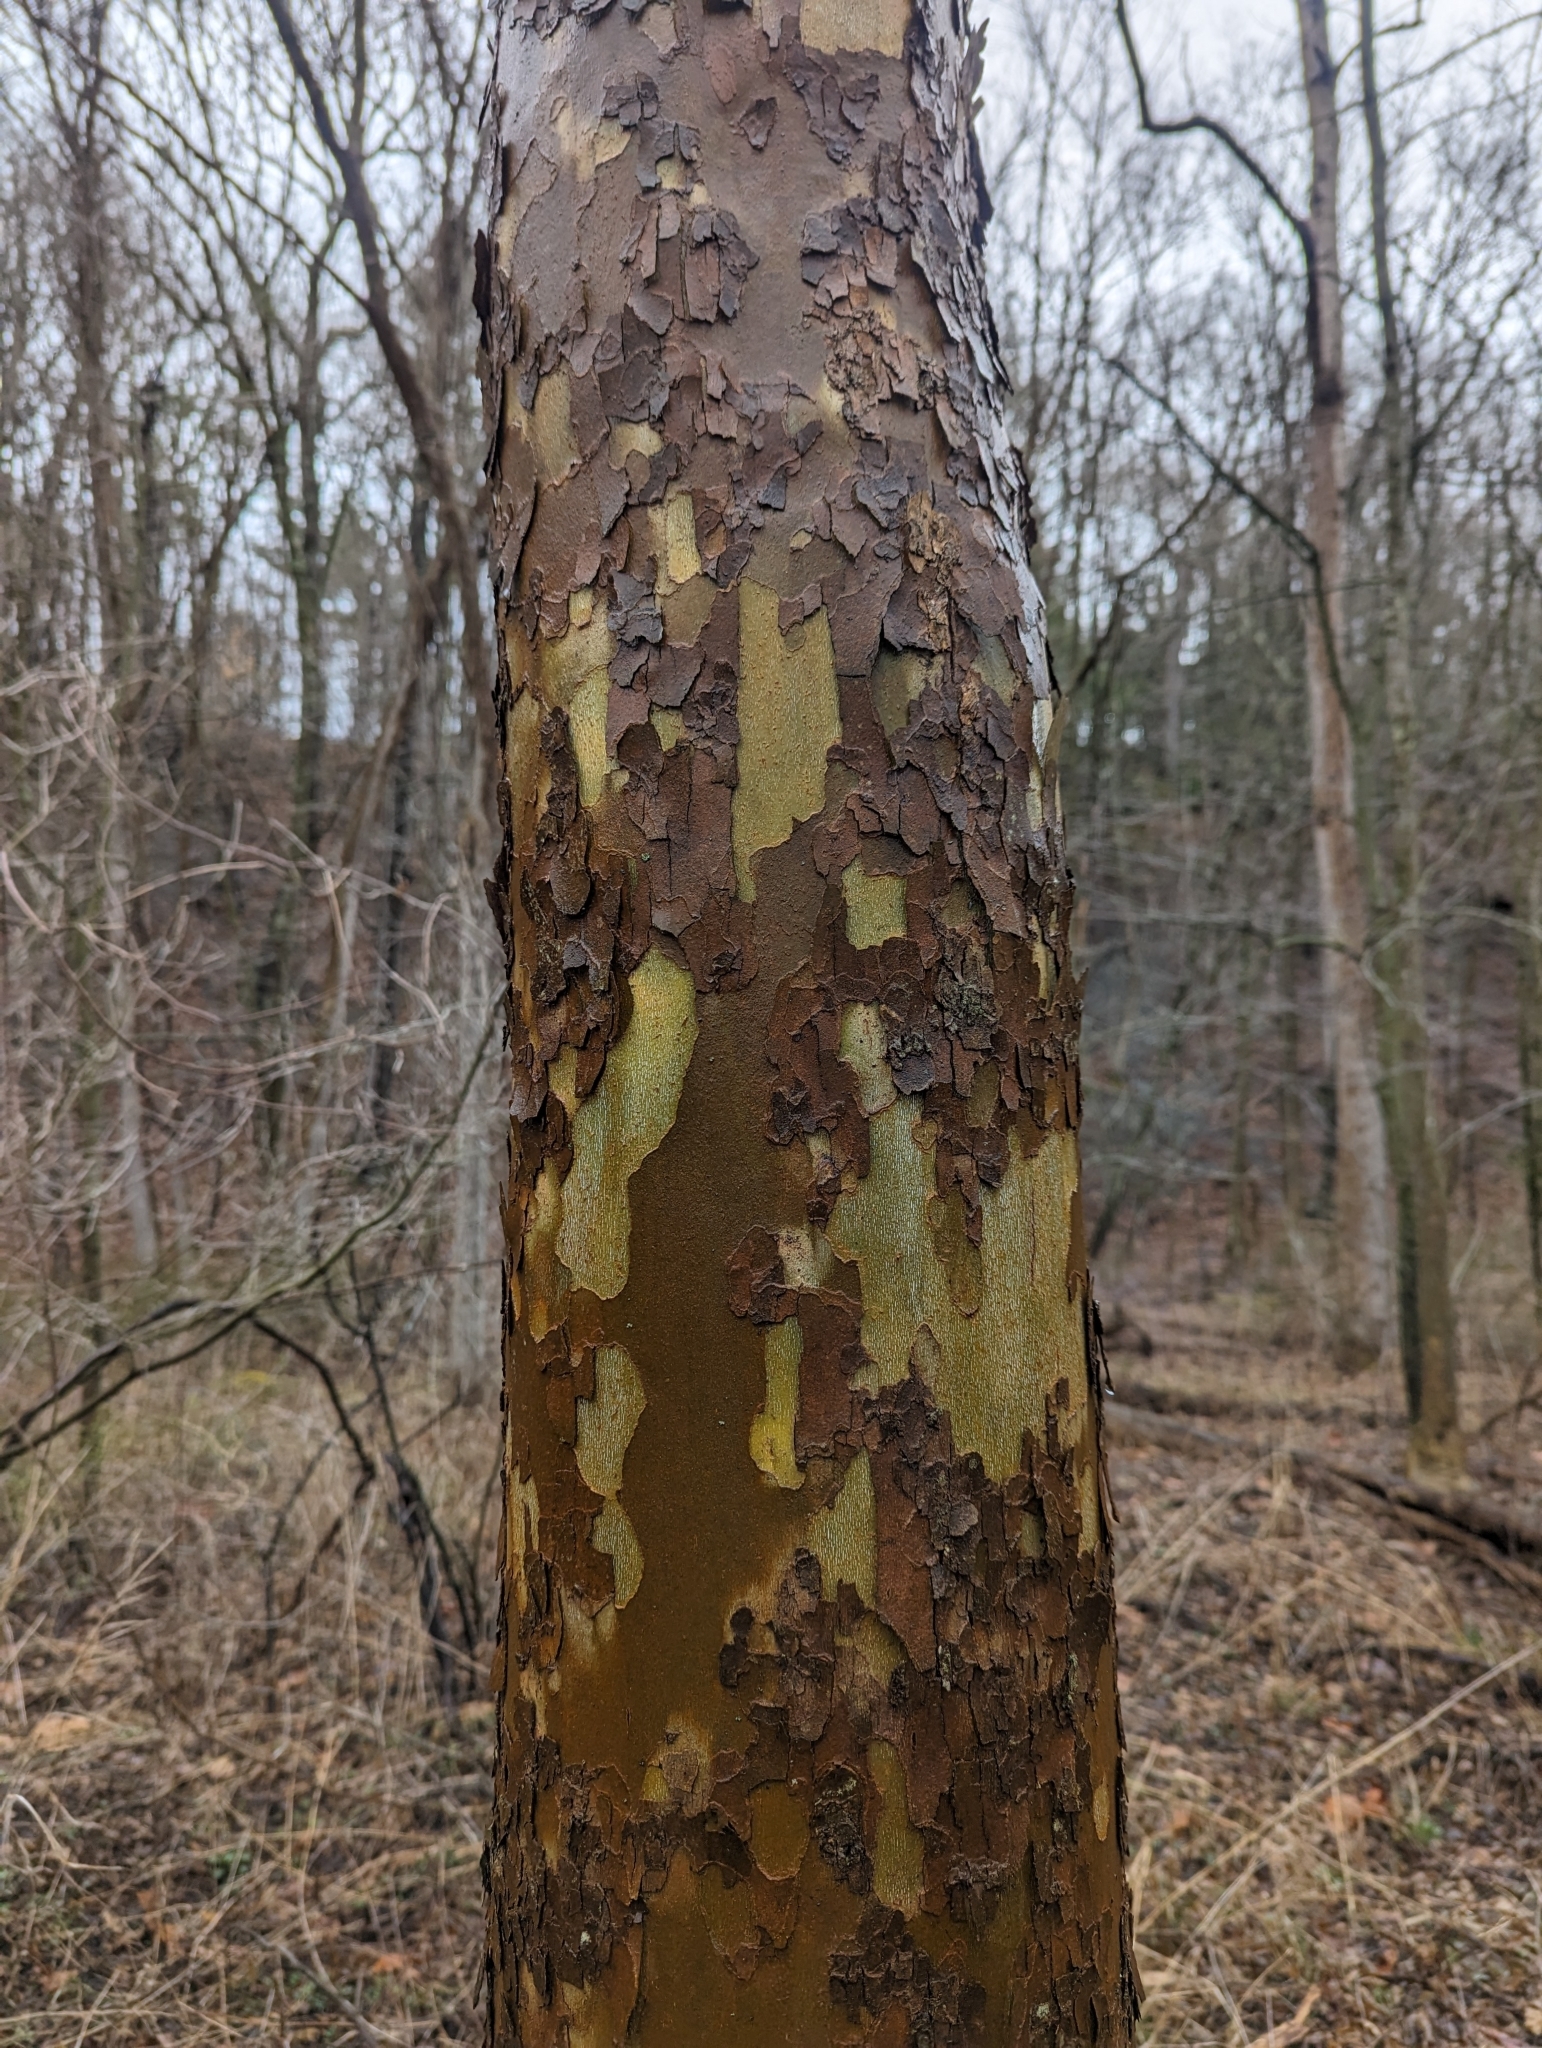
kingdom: Plantae
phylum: Tracheophyta
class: Magnoliopsida
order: Proteales
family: Platanaceae
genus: Platanus
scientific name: Platanus occidentalis
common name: American sycamore
